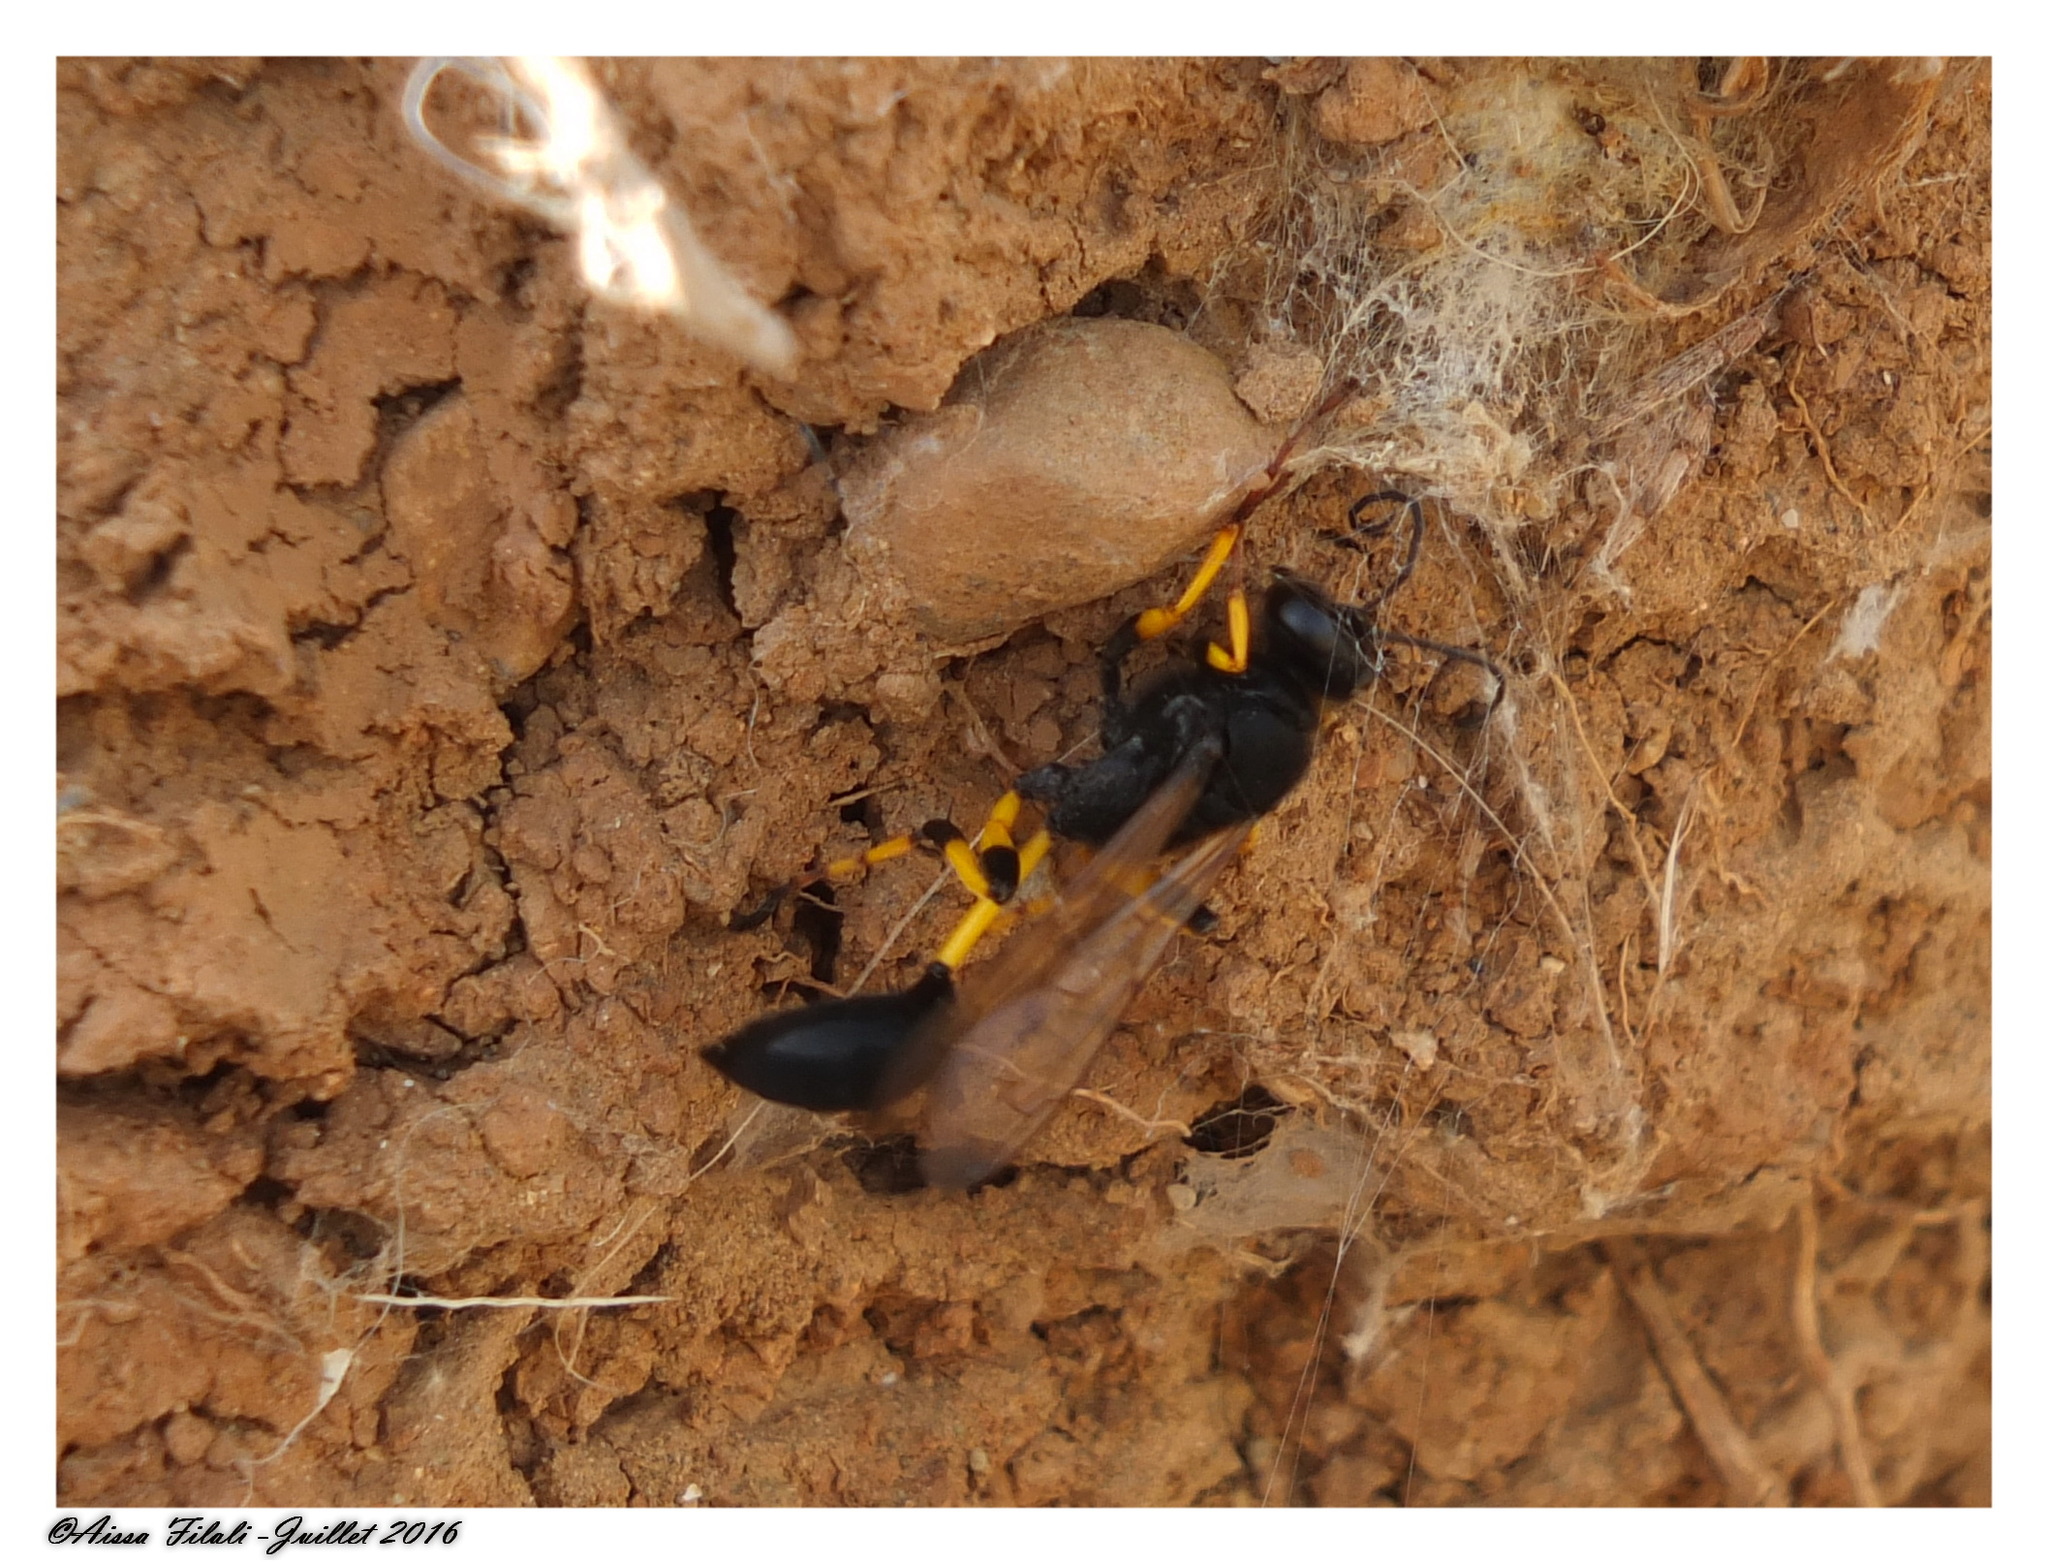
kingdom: Animalia
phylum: Arthropoda
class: Insecta
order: Hymenoptera
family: Sphecidae
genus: Sceliphron
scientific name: Sceliphron spirifex
